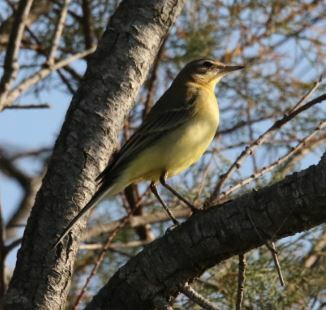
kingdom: Animalia
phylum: Chordata
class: Aves
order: Passeriformes
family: Motacillidae
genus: Motacilla
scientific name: Motacilla flava
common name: Western yellow wagtail
